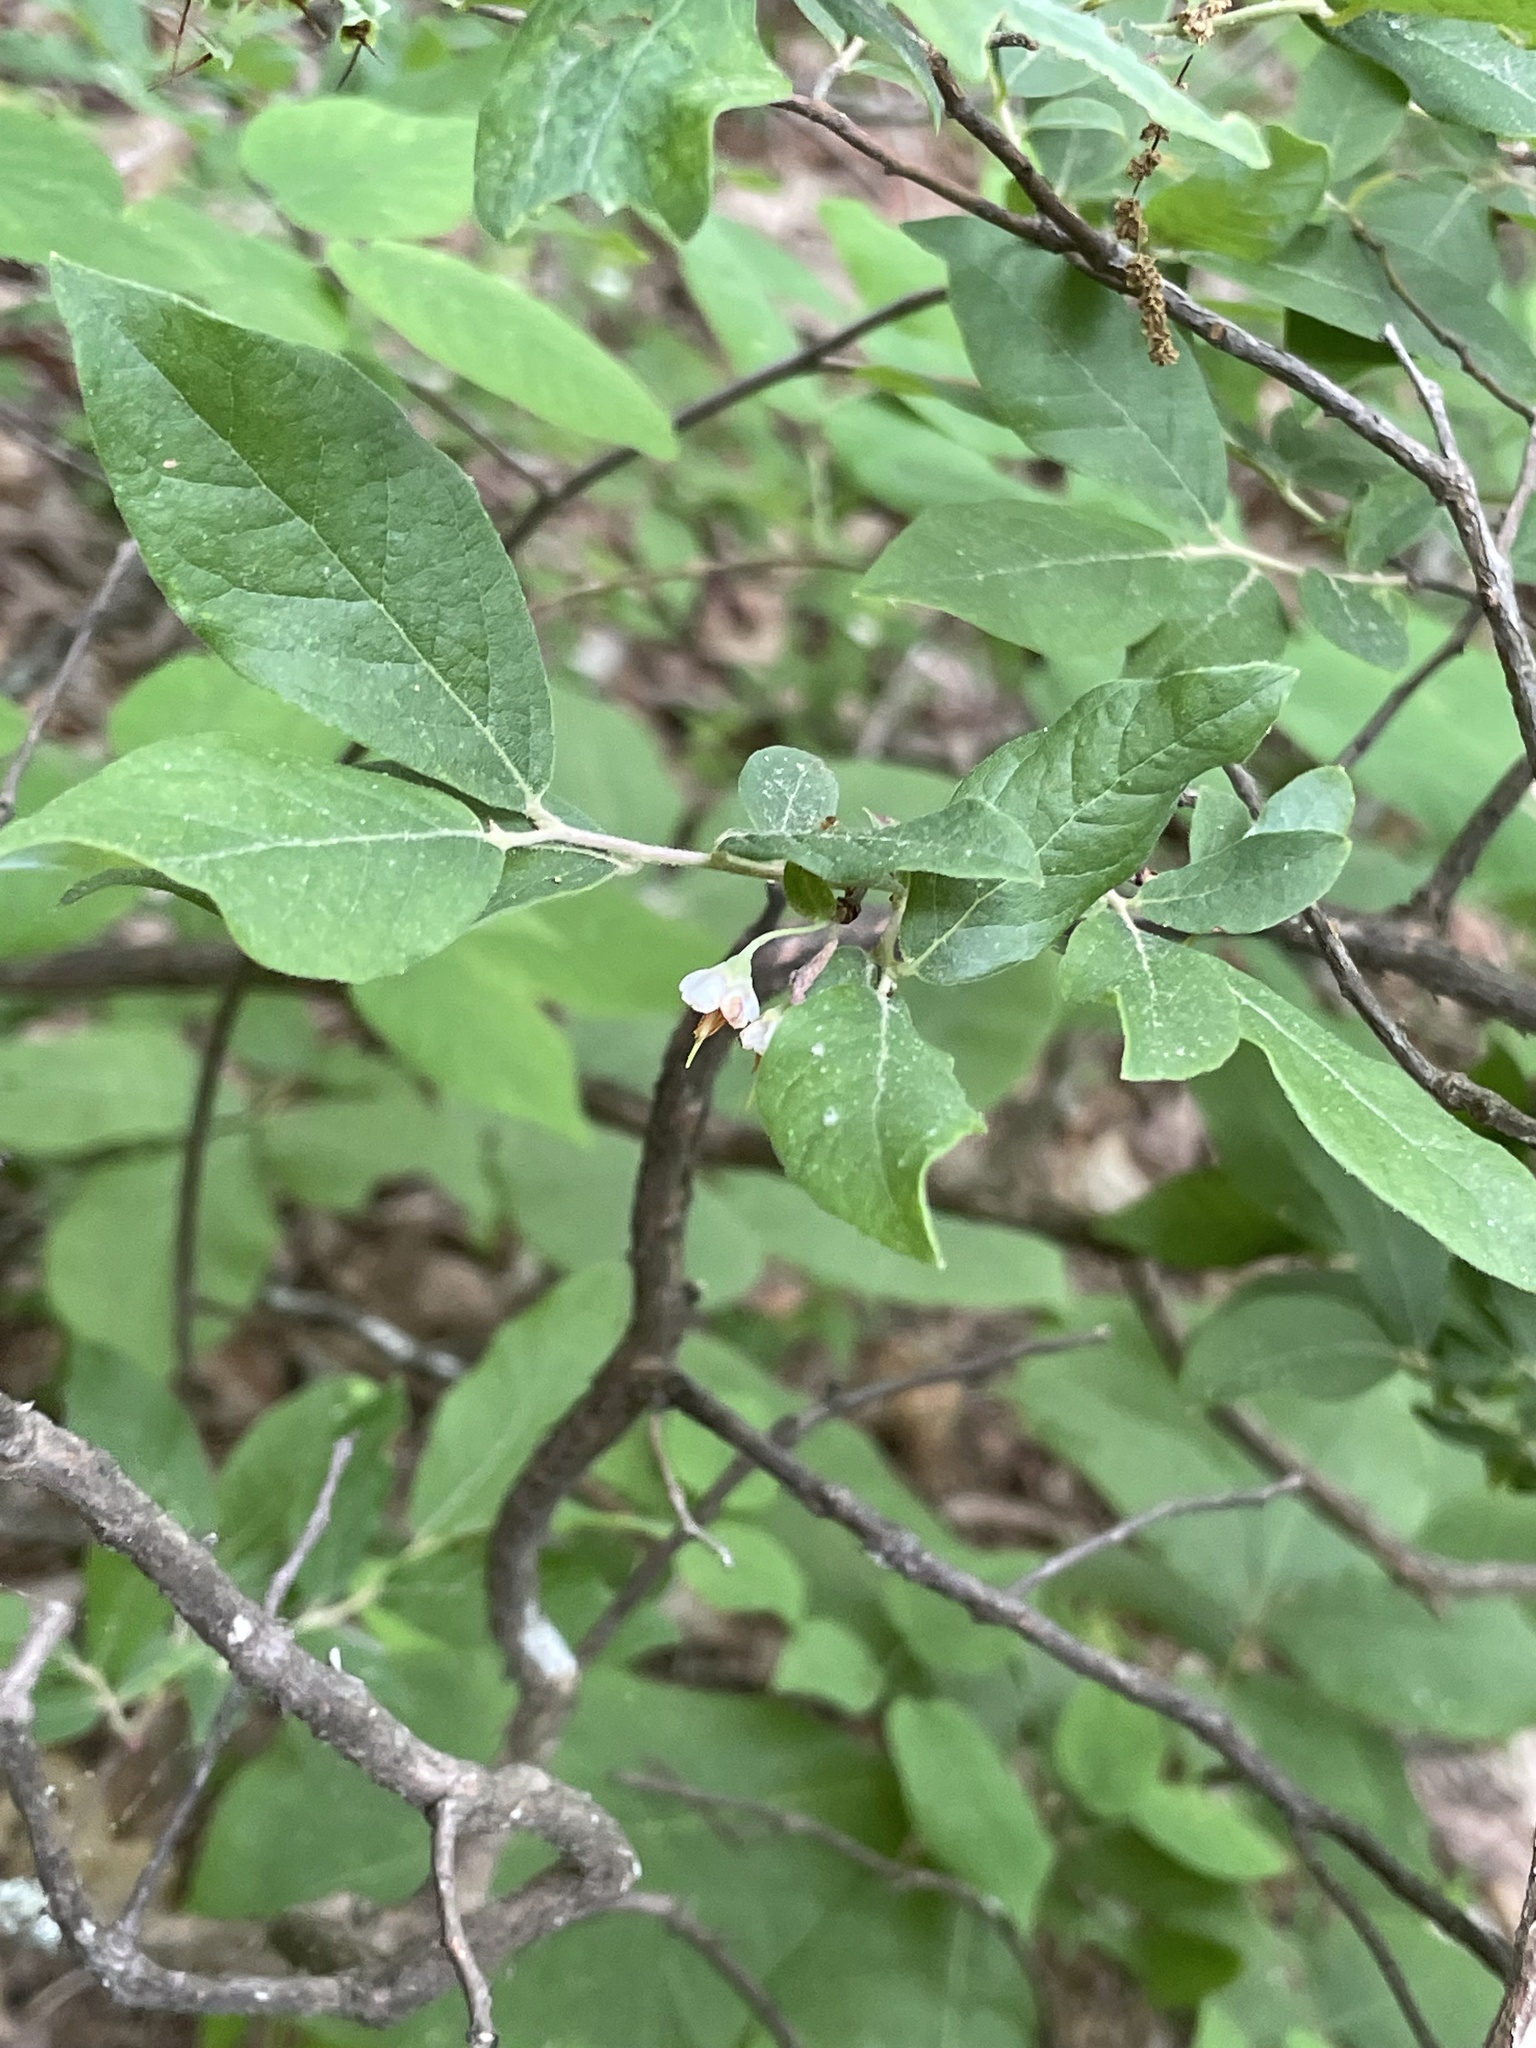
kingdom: Plantae
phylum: Tracheophyta
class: Magnoliopsida
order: Ericales
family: Ericaceae
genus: Vaccinium
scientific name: Vaccinium stamineum
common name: Deerberry
